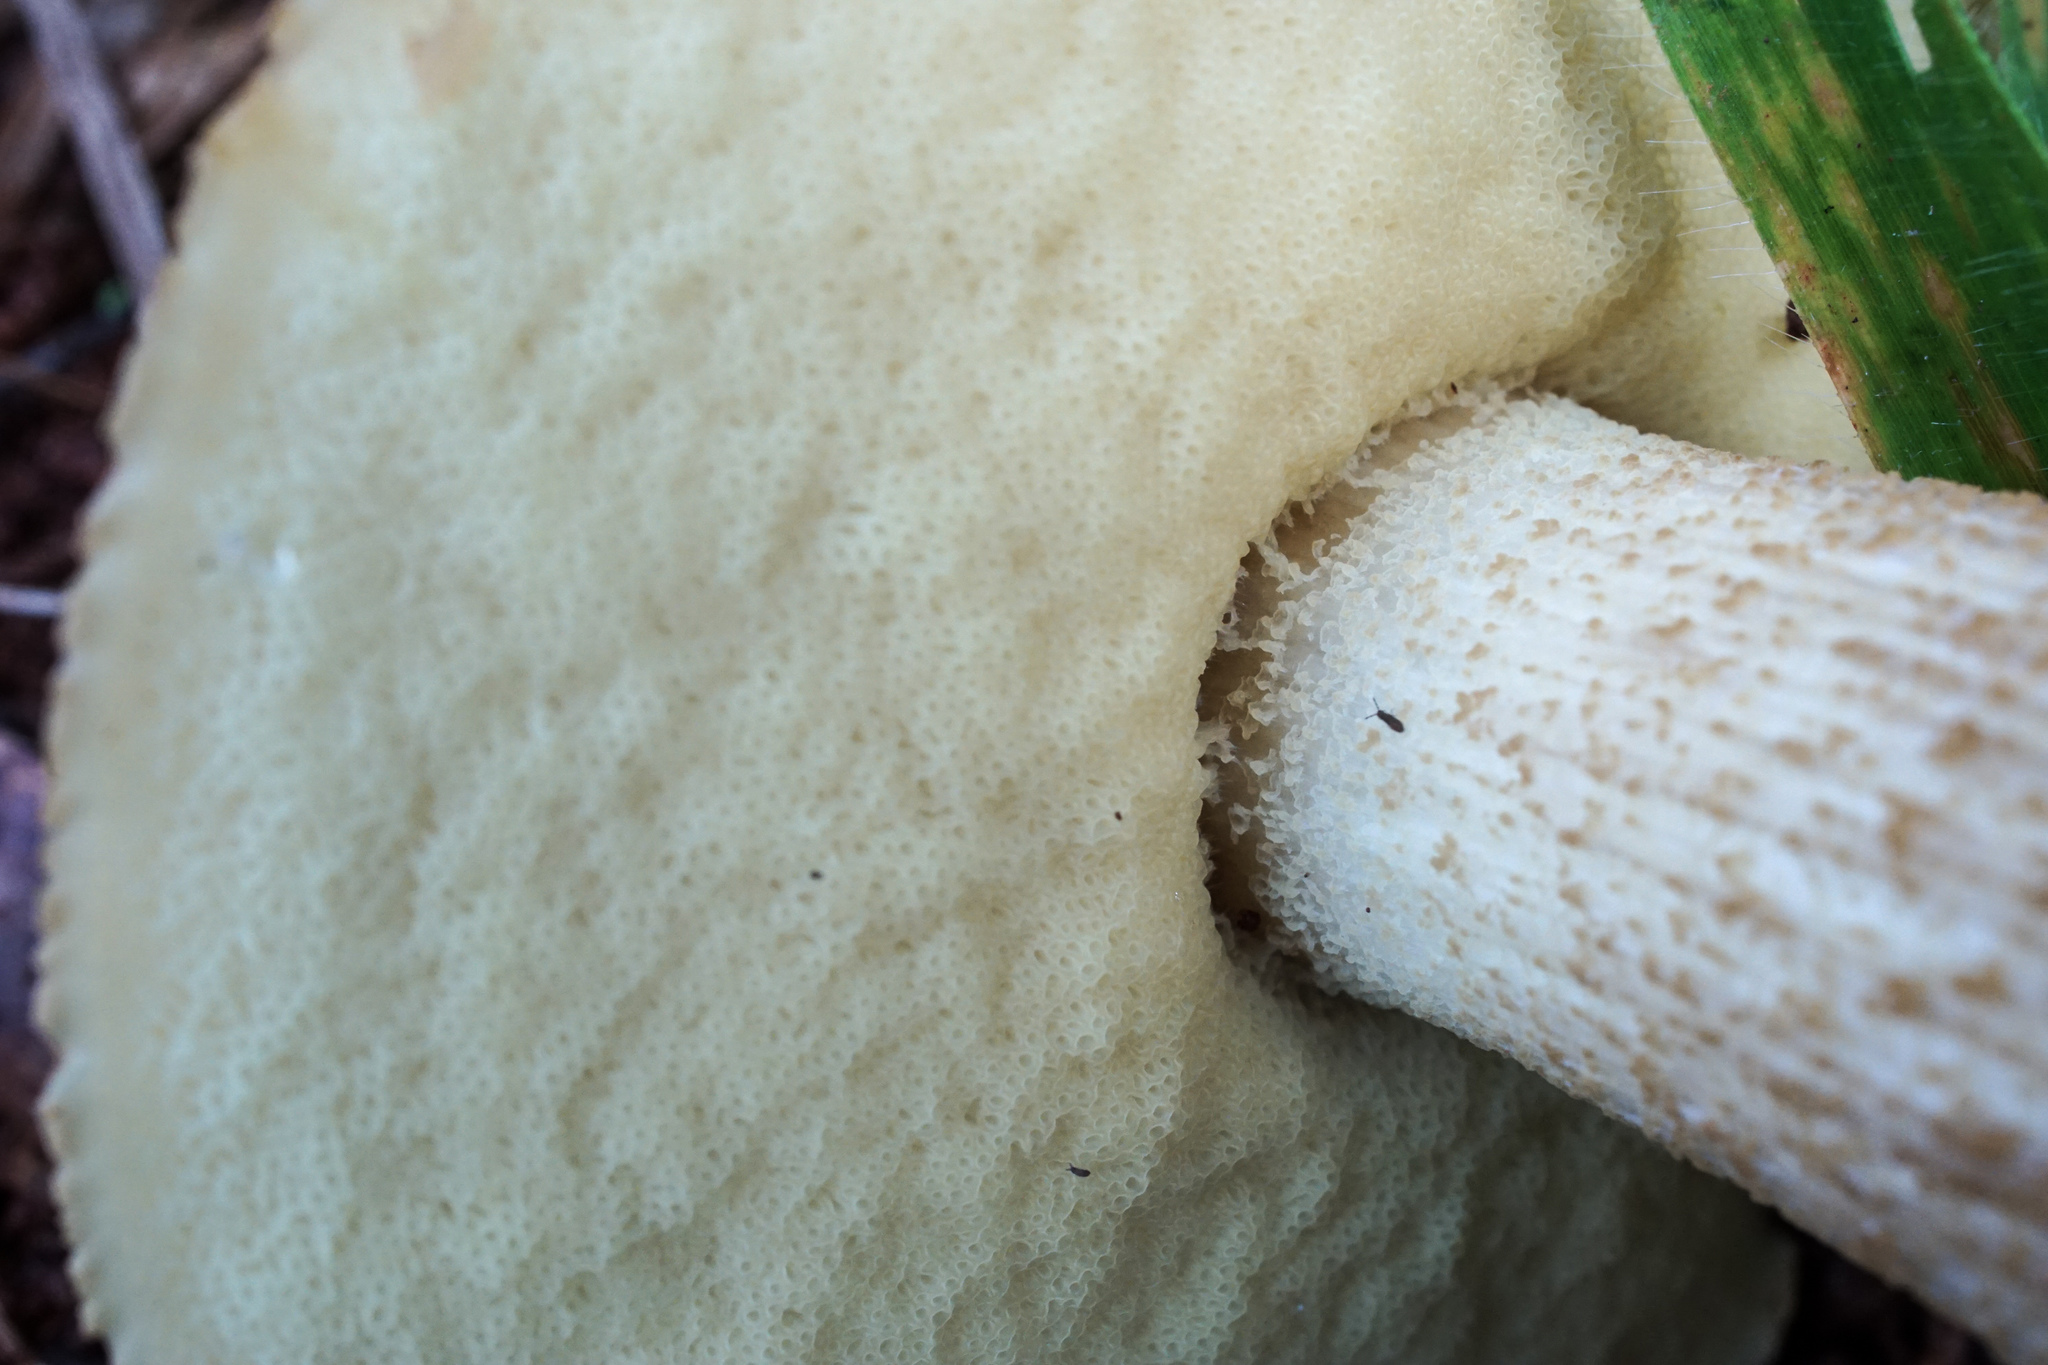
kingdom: Fungi
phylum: Basidiomycota
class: Agaricomycetes
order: Boletales
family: Boletaceae
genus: Leccinellum
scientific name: Leccinellum rugosiceps
